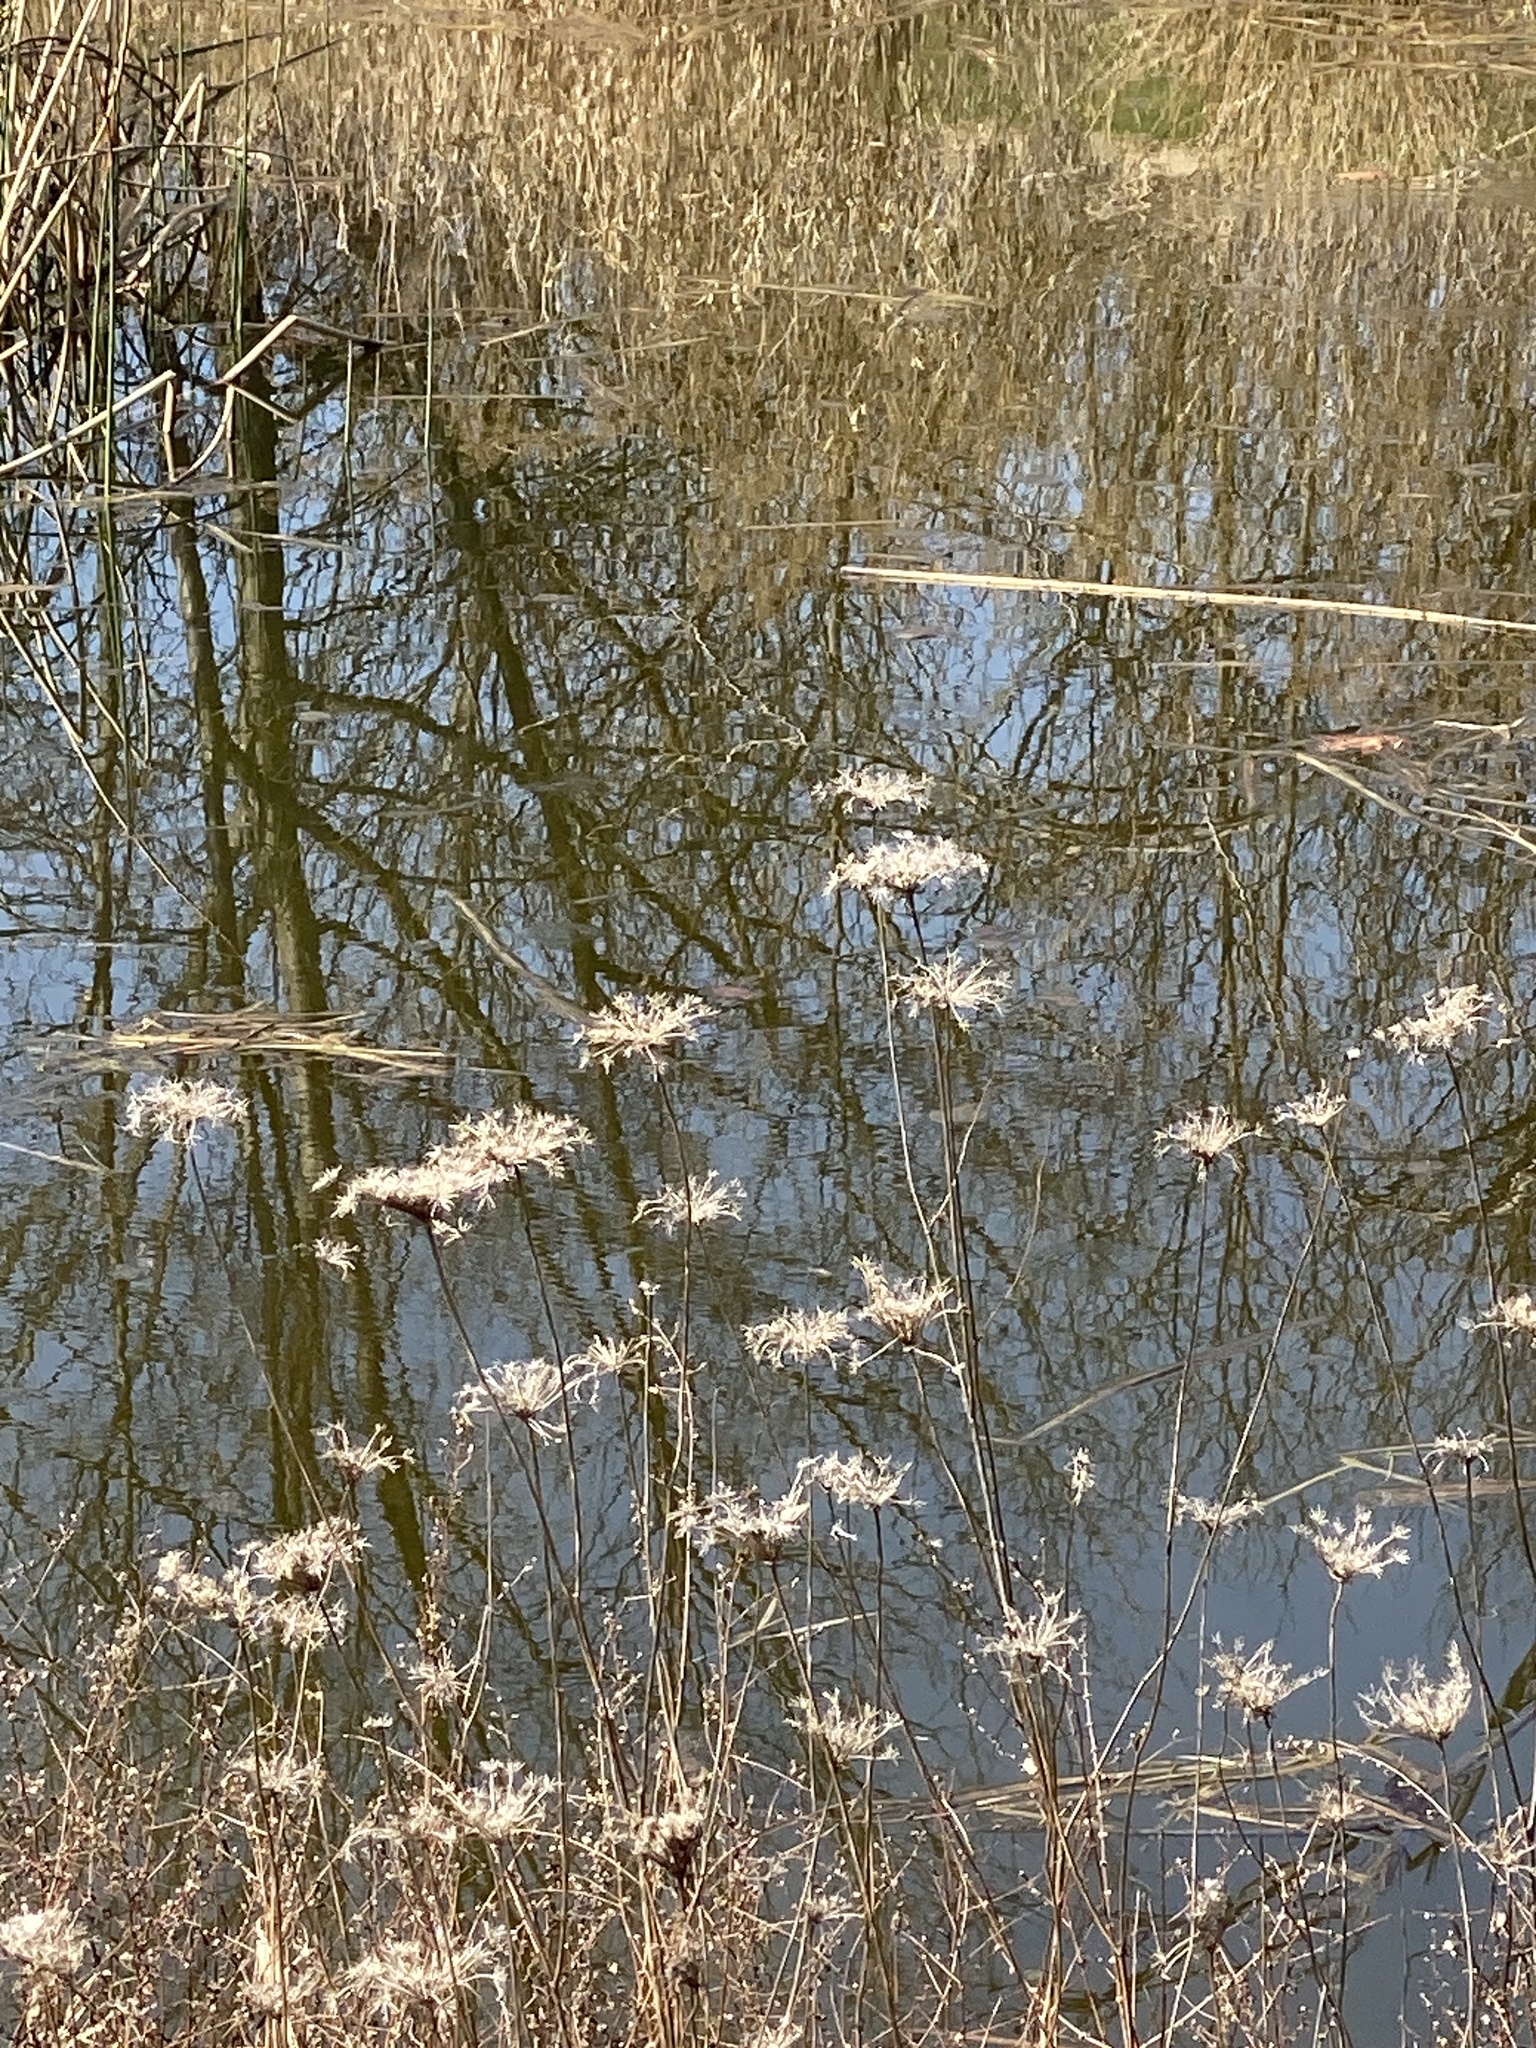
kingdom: Plantae
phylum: Tracheophyta
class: Magnoliopsida
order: Apiales
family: Apiaceae
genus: Daucus
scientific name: Daucus carota
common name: Wild carrot
